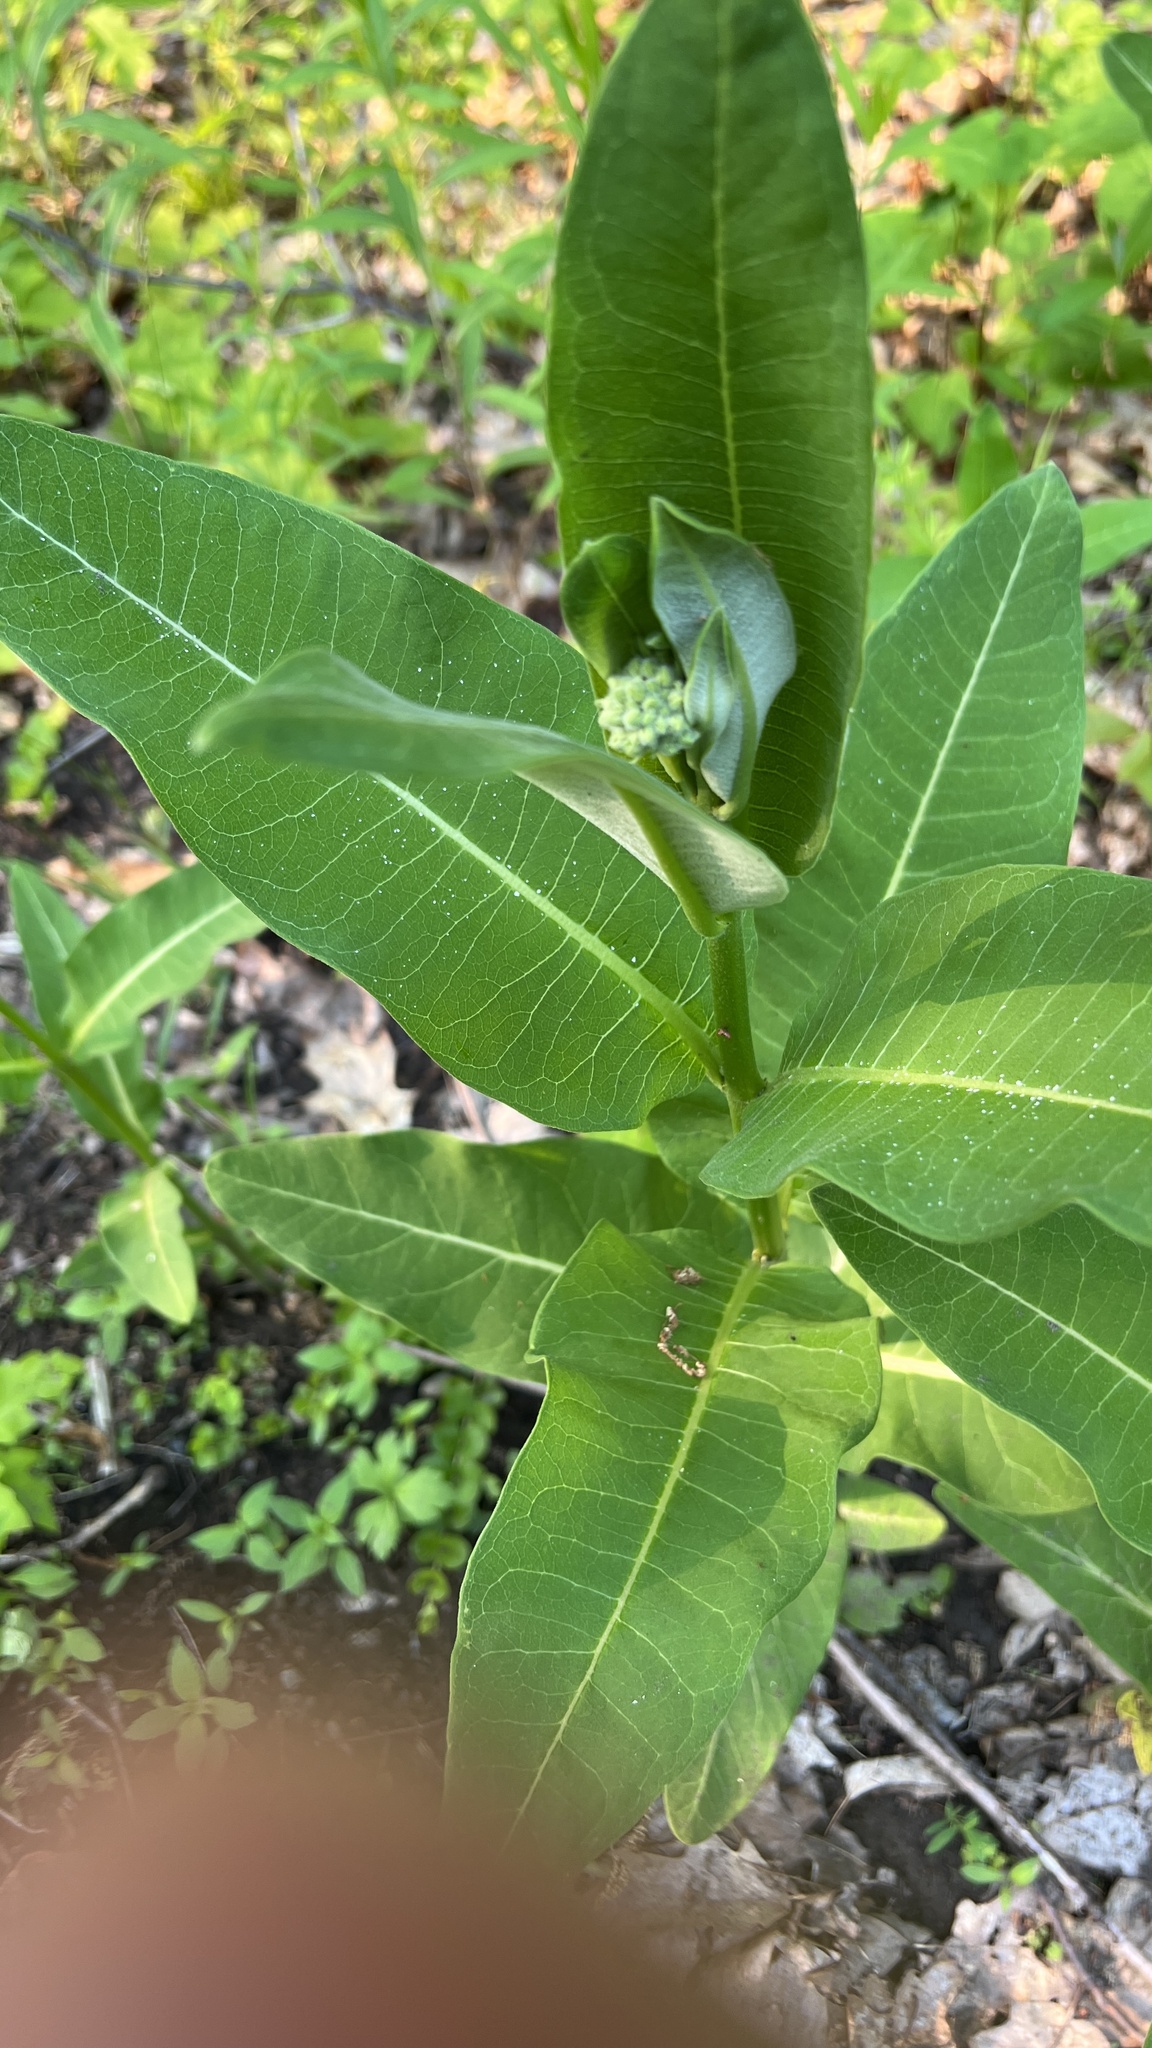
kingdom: Plantae
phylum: Tracheophyta
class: Magnoliopsida
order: Gentianales
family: Apocynaceae
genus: Asclepias
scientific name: Asclepias syriaca
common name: Common milkweed
